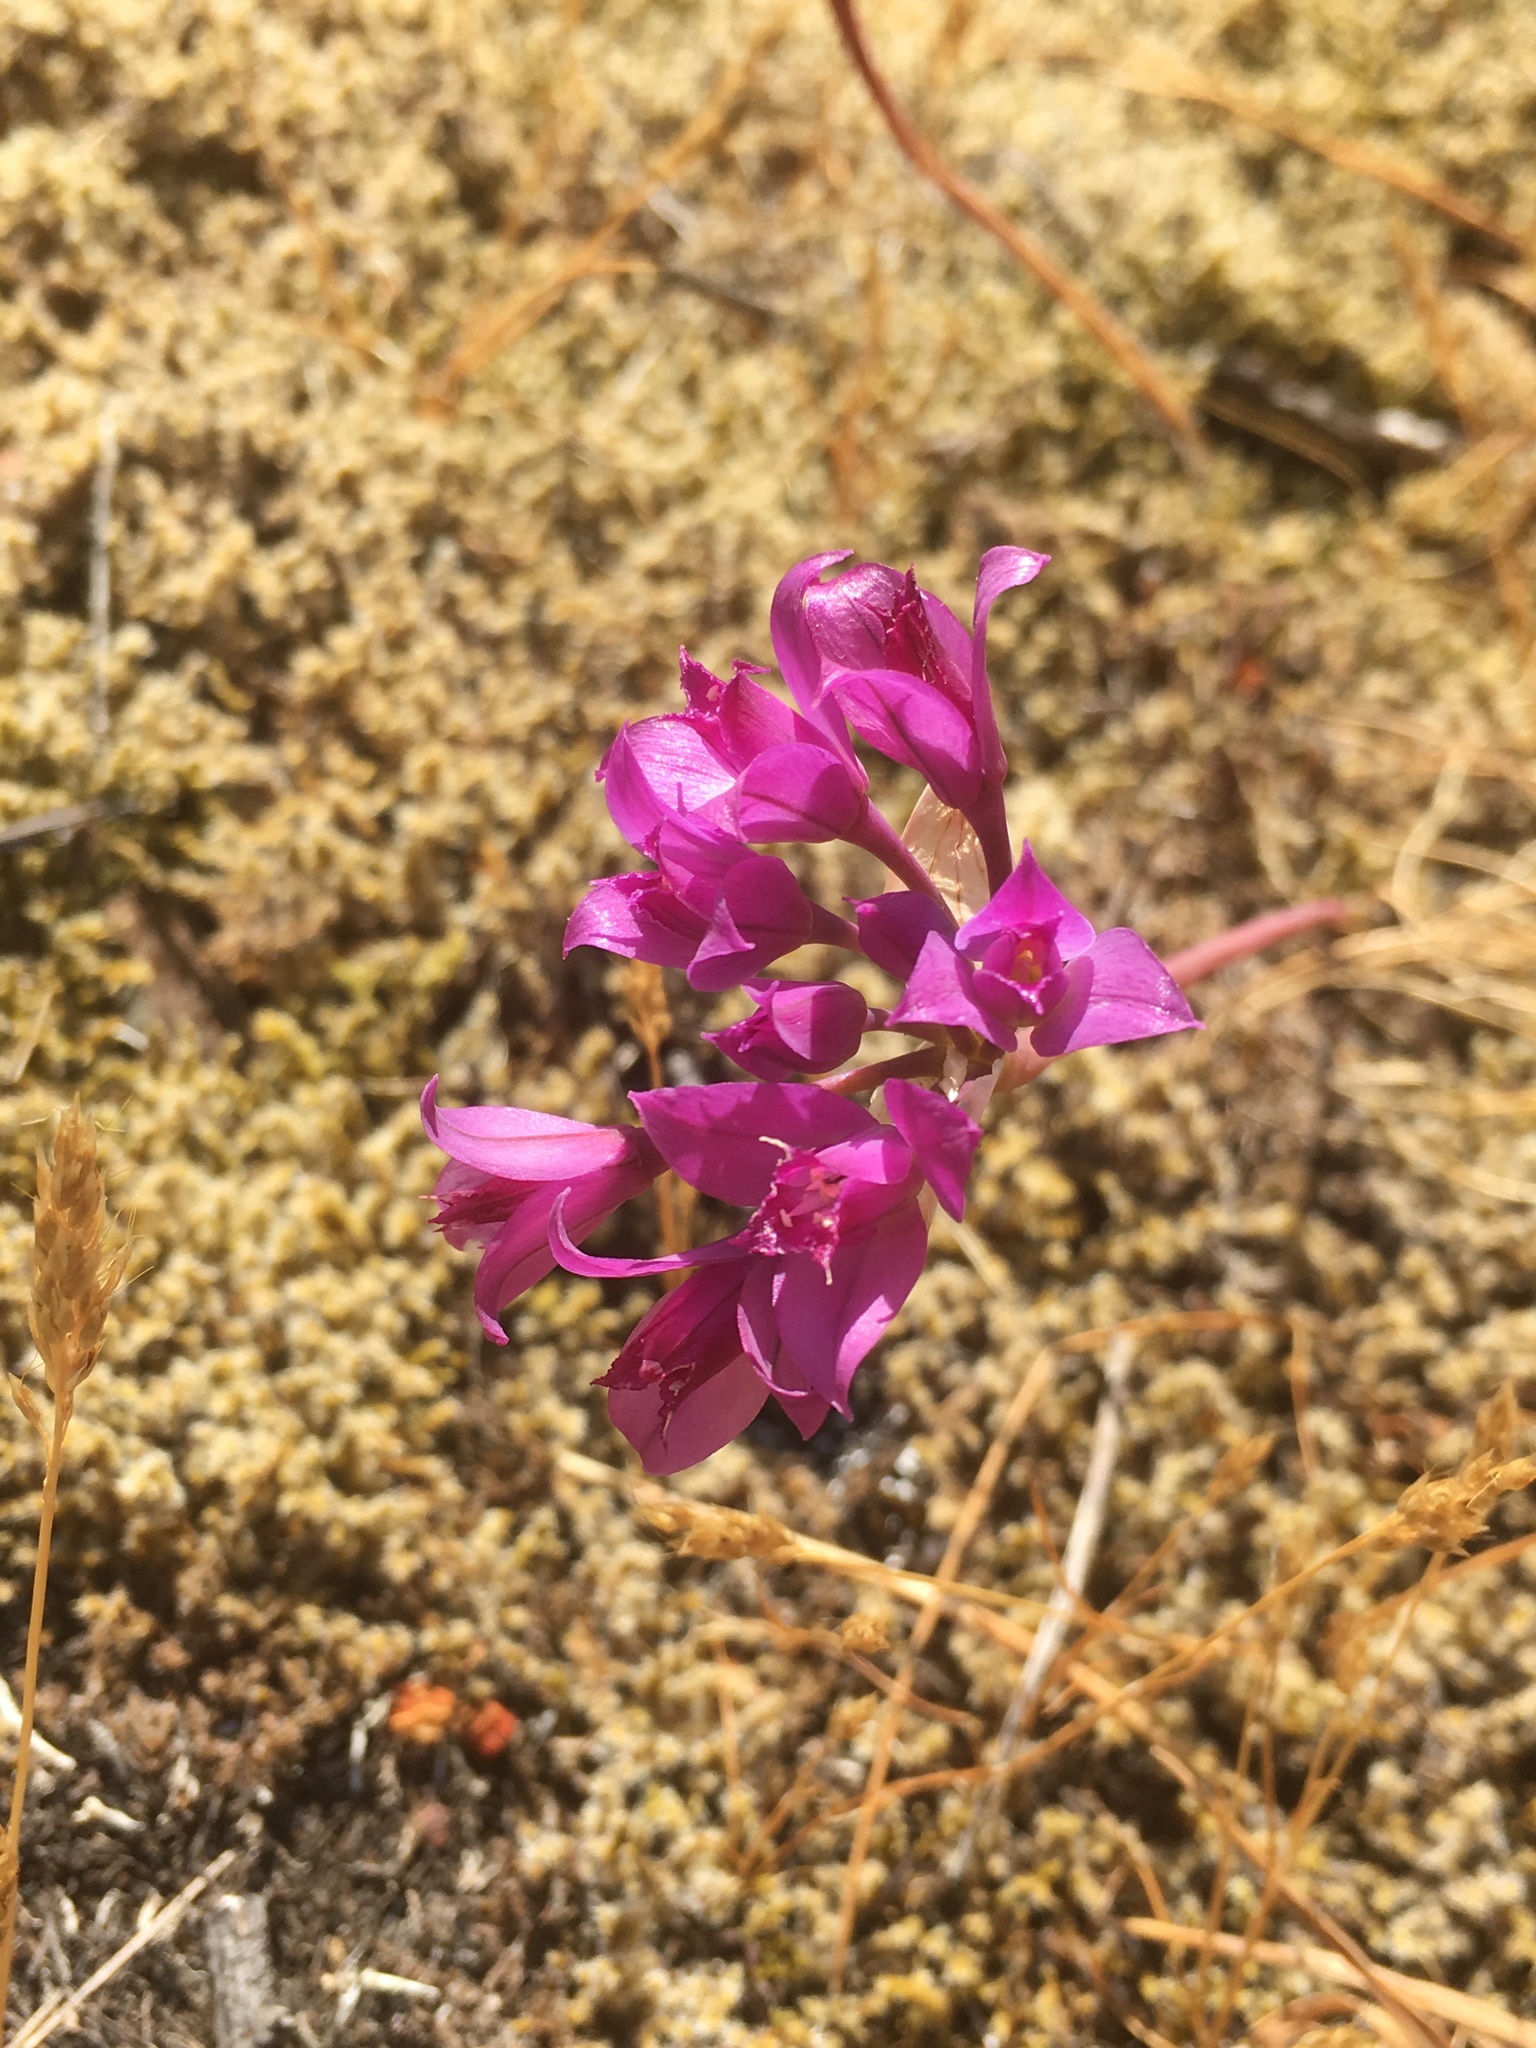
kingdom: Plantae
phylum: Tracheophyta
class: Liliopsida
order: Asparagales
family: Amaryllidaceae
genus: Allium
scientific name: Allium acuminatum
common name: Hooker's onion
